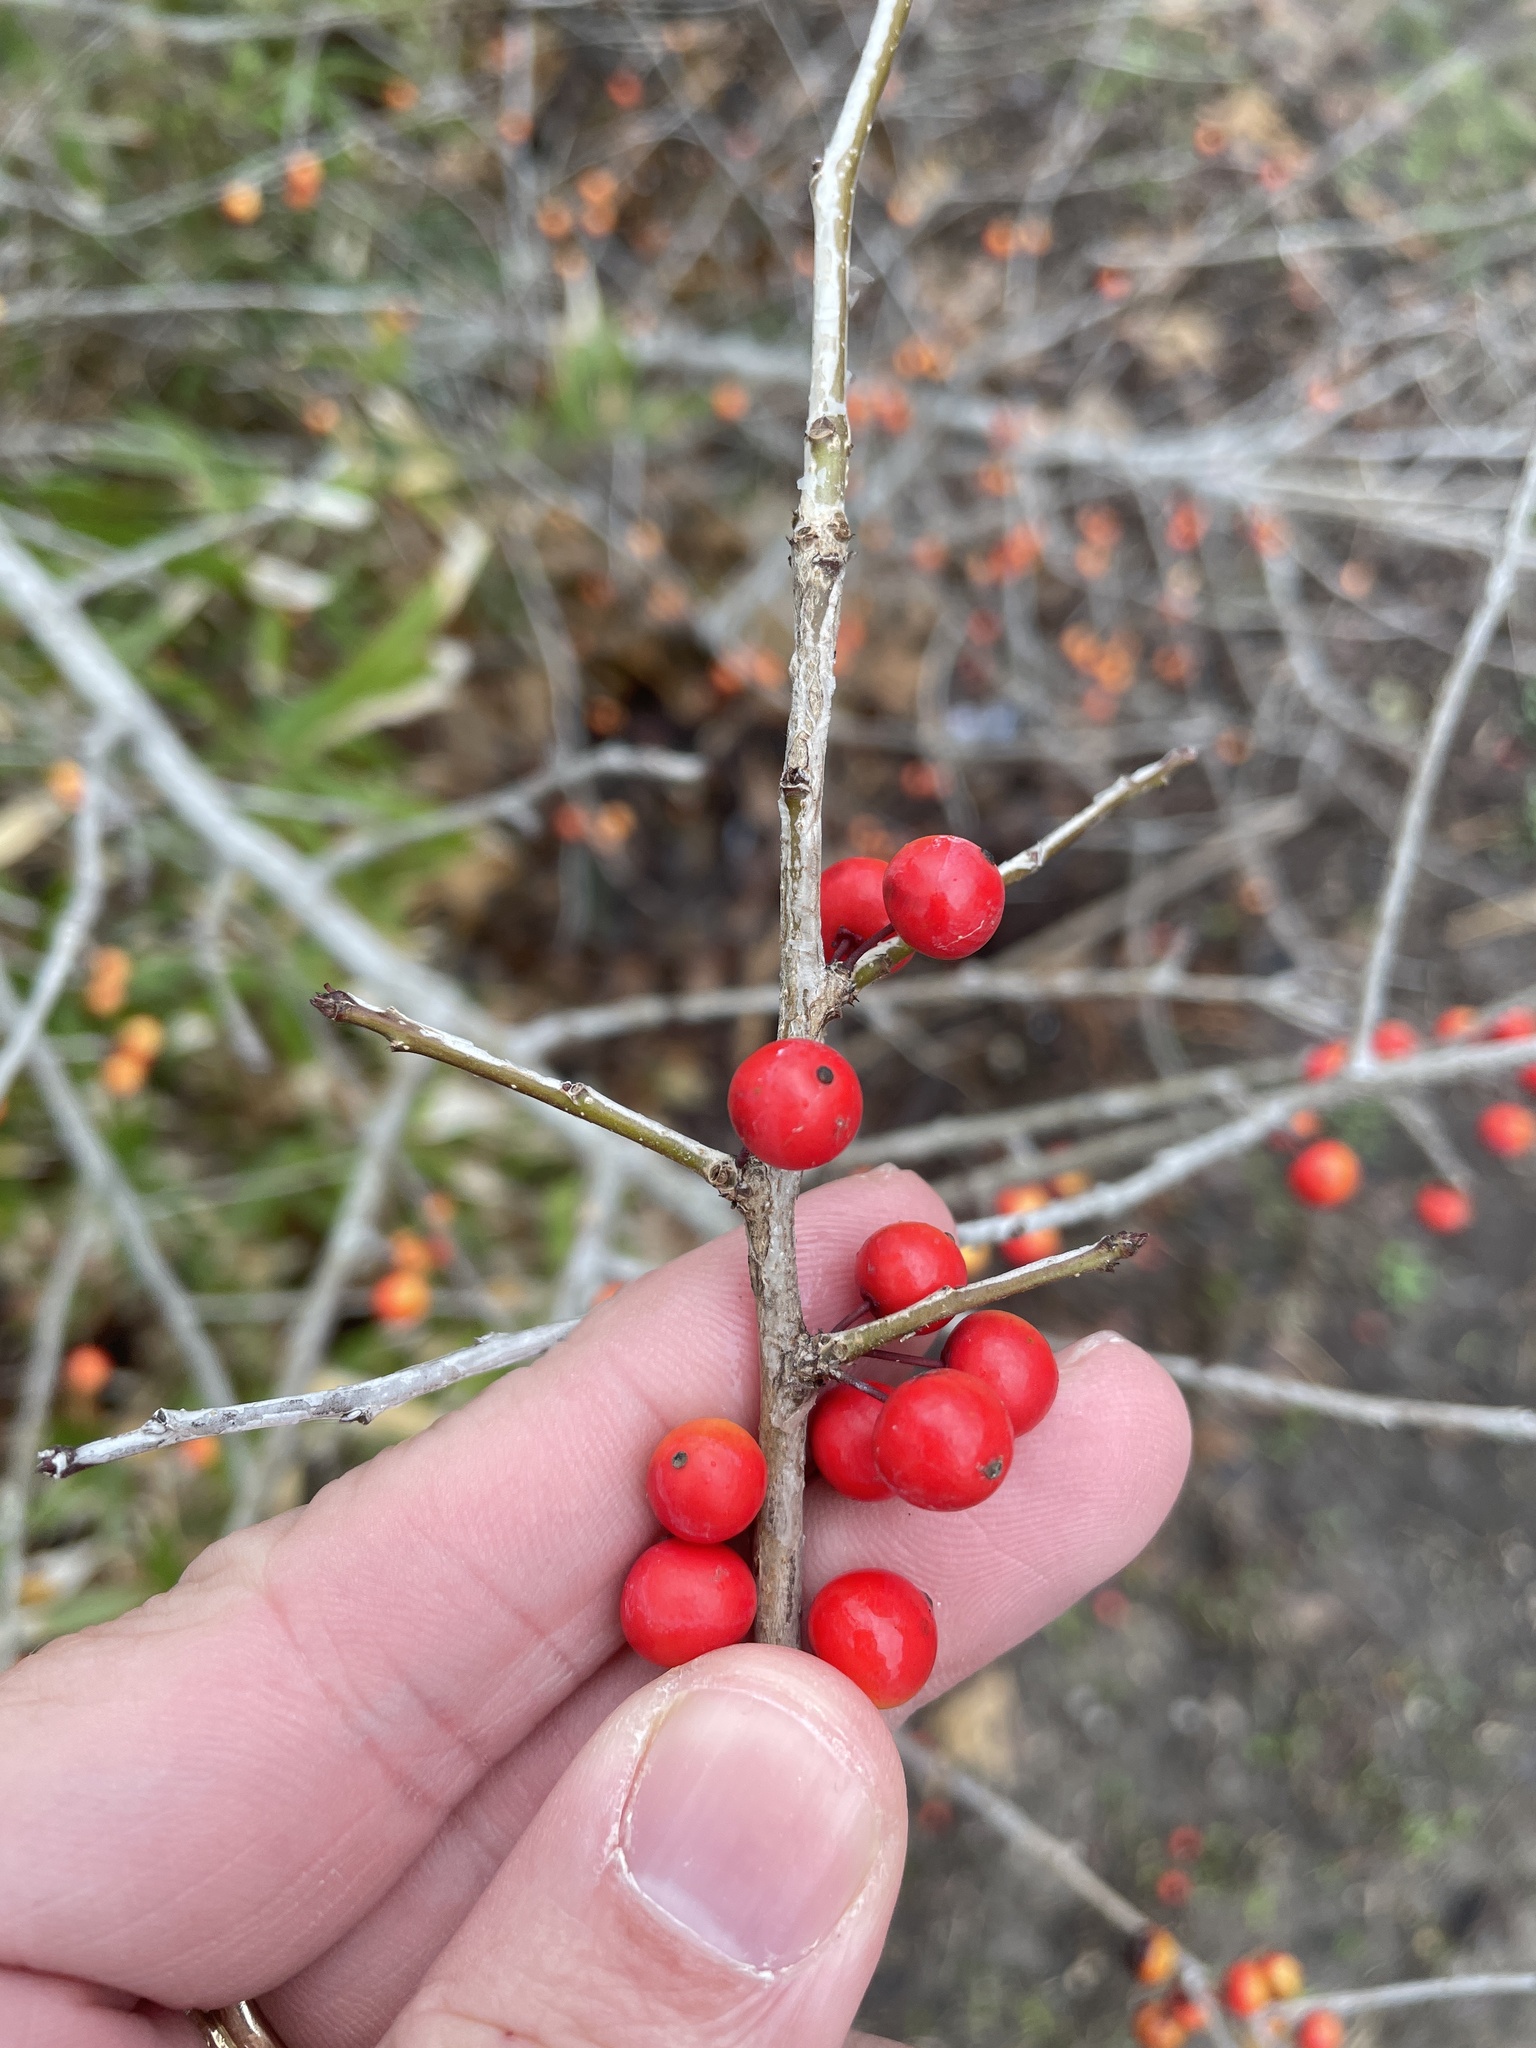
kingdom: Plantae
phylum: Tracheophyta
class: Magnoliopsida
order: Aquifoliales
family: Aquifoliaceae
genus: Ilex
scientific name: Ilex decidua
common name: Possum-haw
